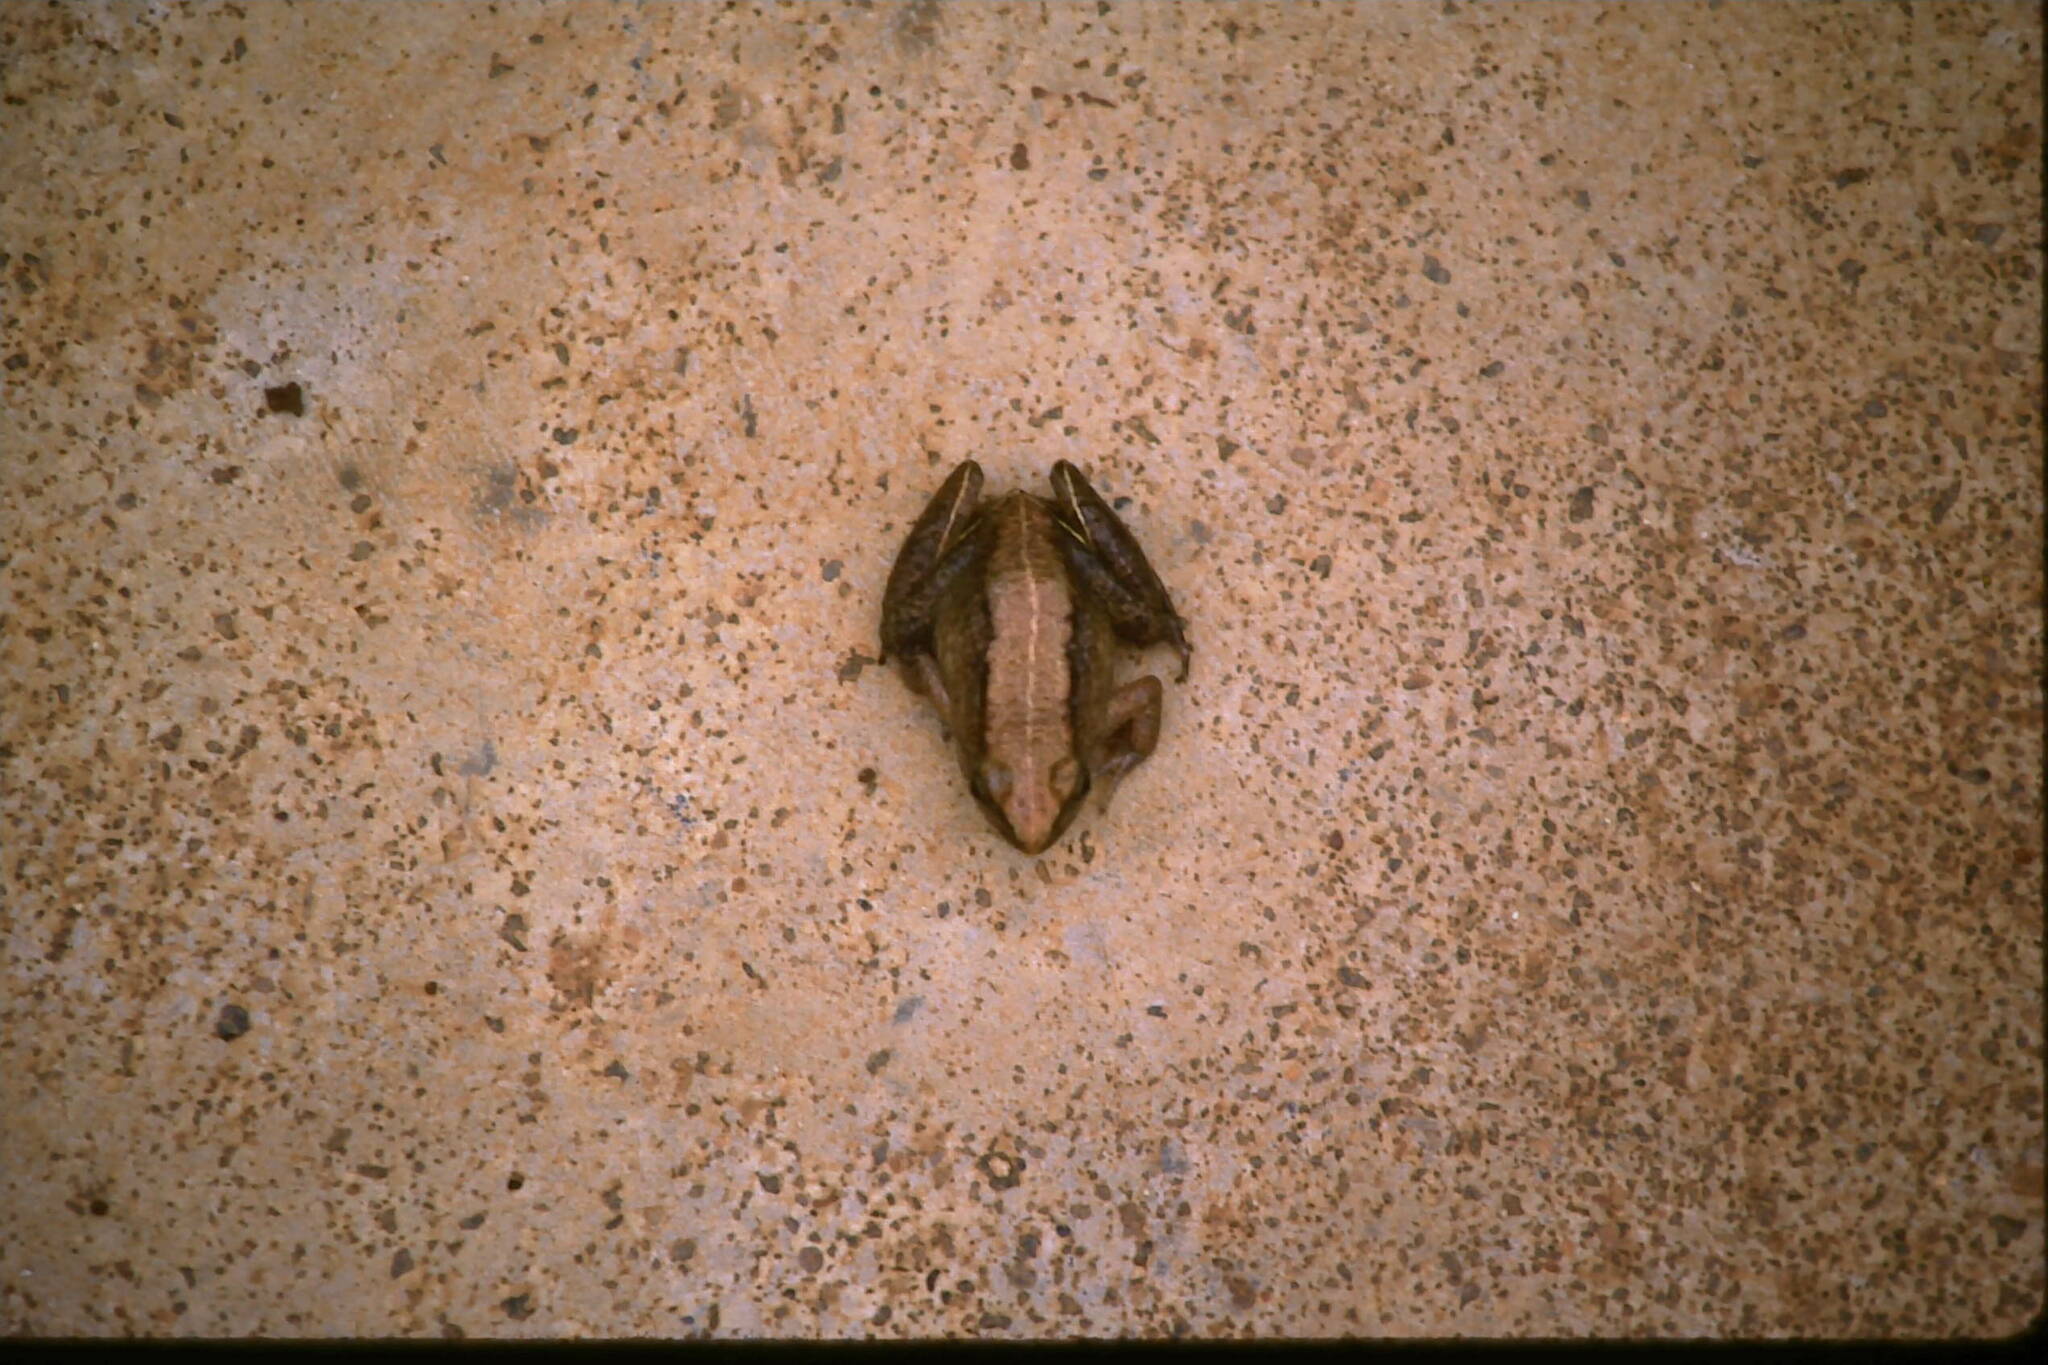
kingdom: Animalia
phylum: Chordata
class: Amphibia
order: Anura
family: Phrynobatrachidae
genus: Phrynobatrachus
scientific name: Phrynobatrachus acridoides
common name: East african puddle frog
